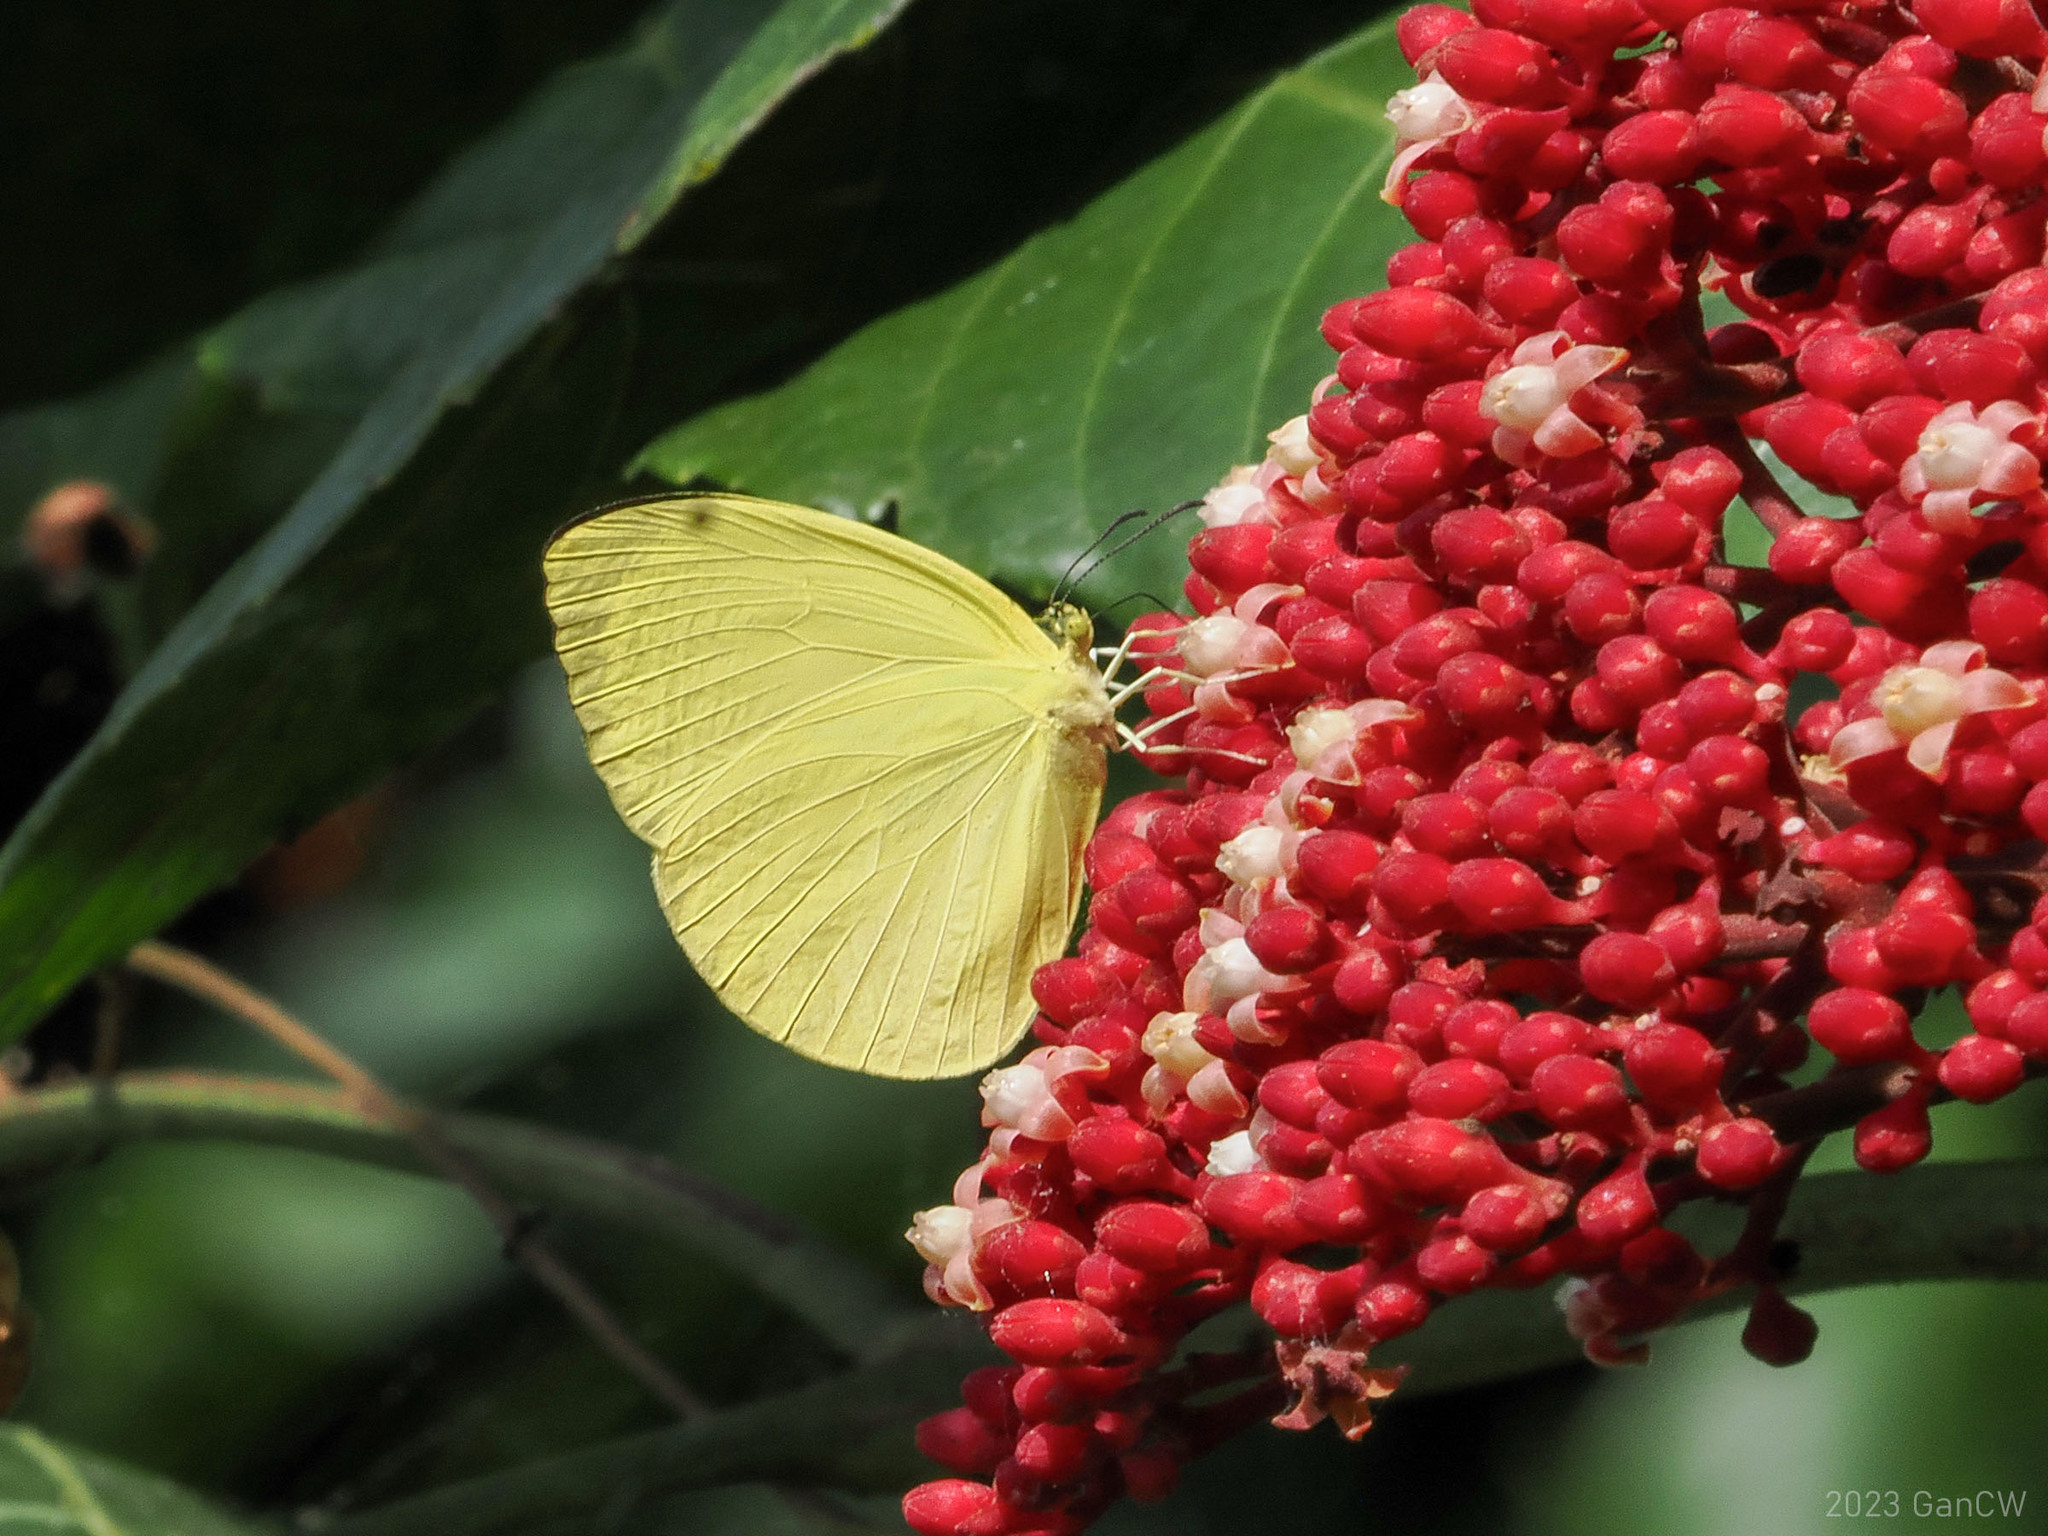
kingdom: Animalia
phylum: Arthropoda
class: Insecta
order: Lepidoptera
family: Pieridae
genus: Gandaca
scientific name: Gandaca harina
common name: Tree yellow
